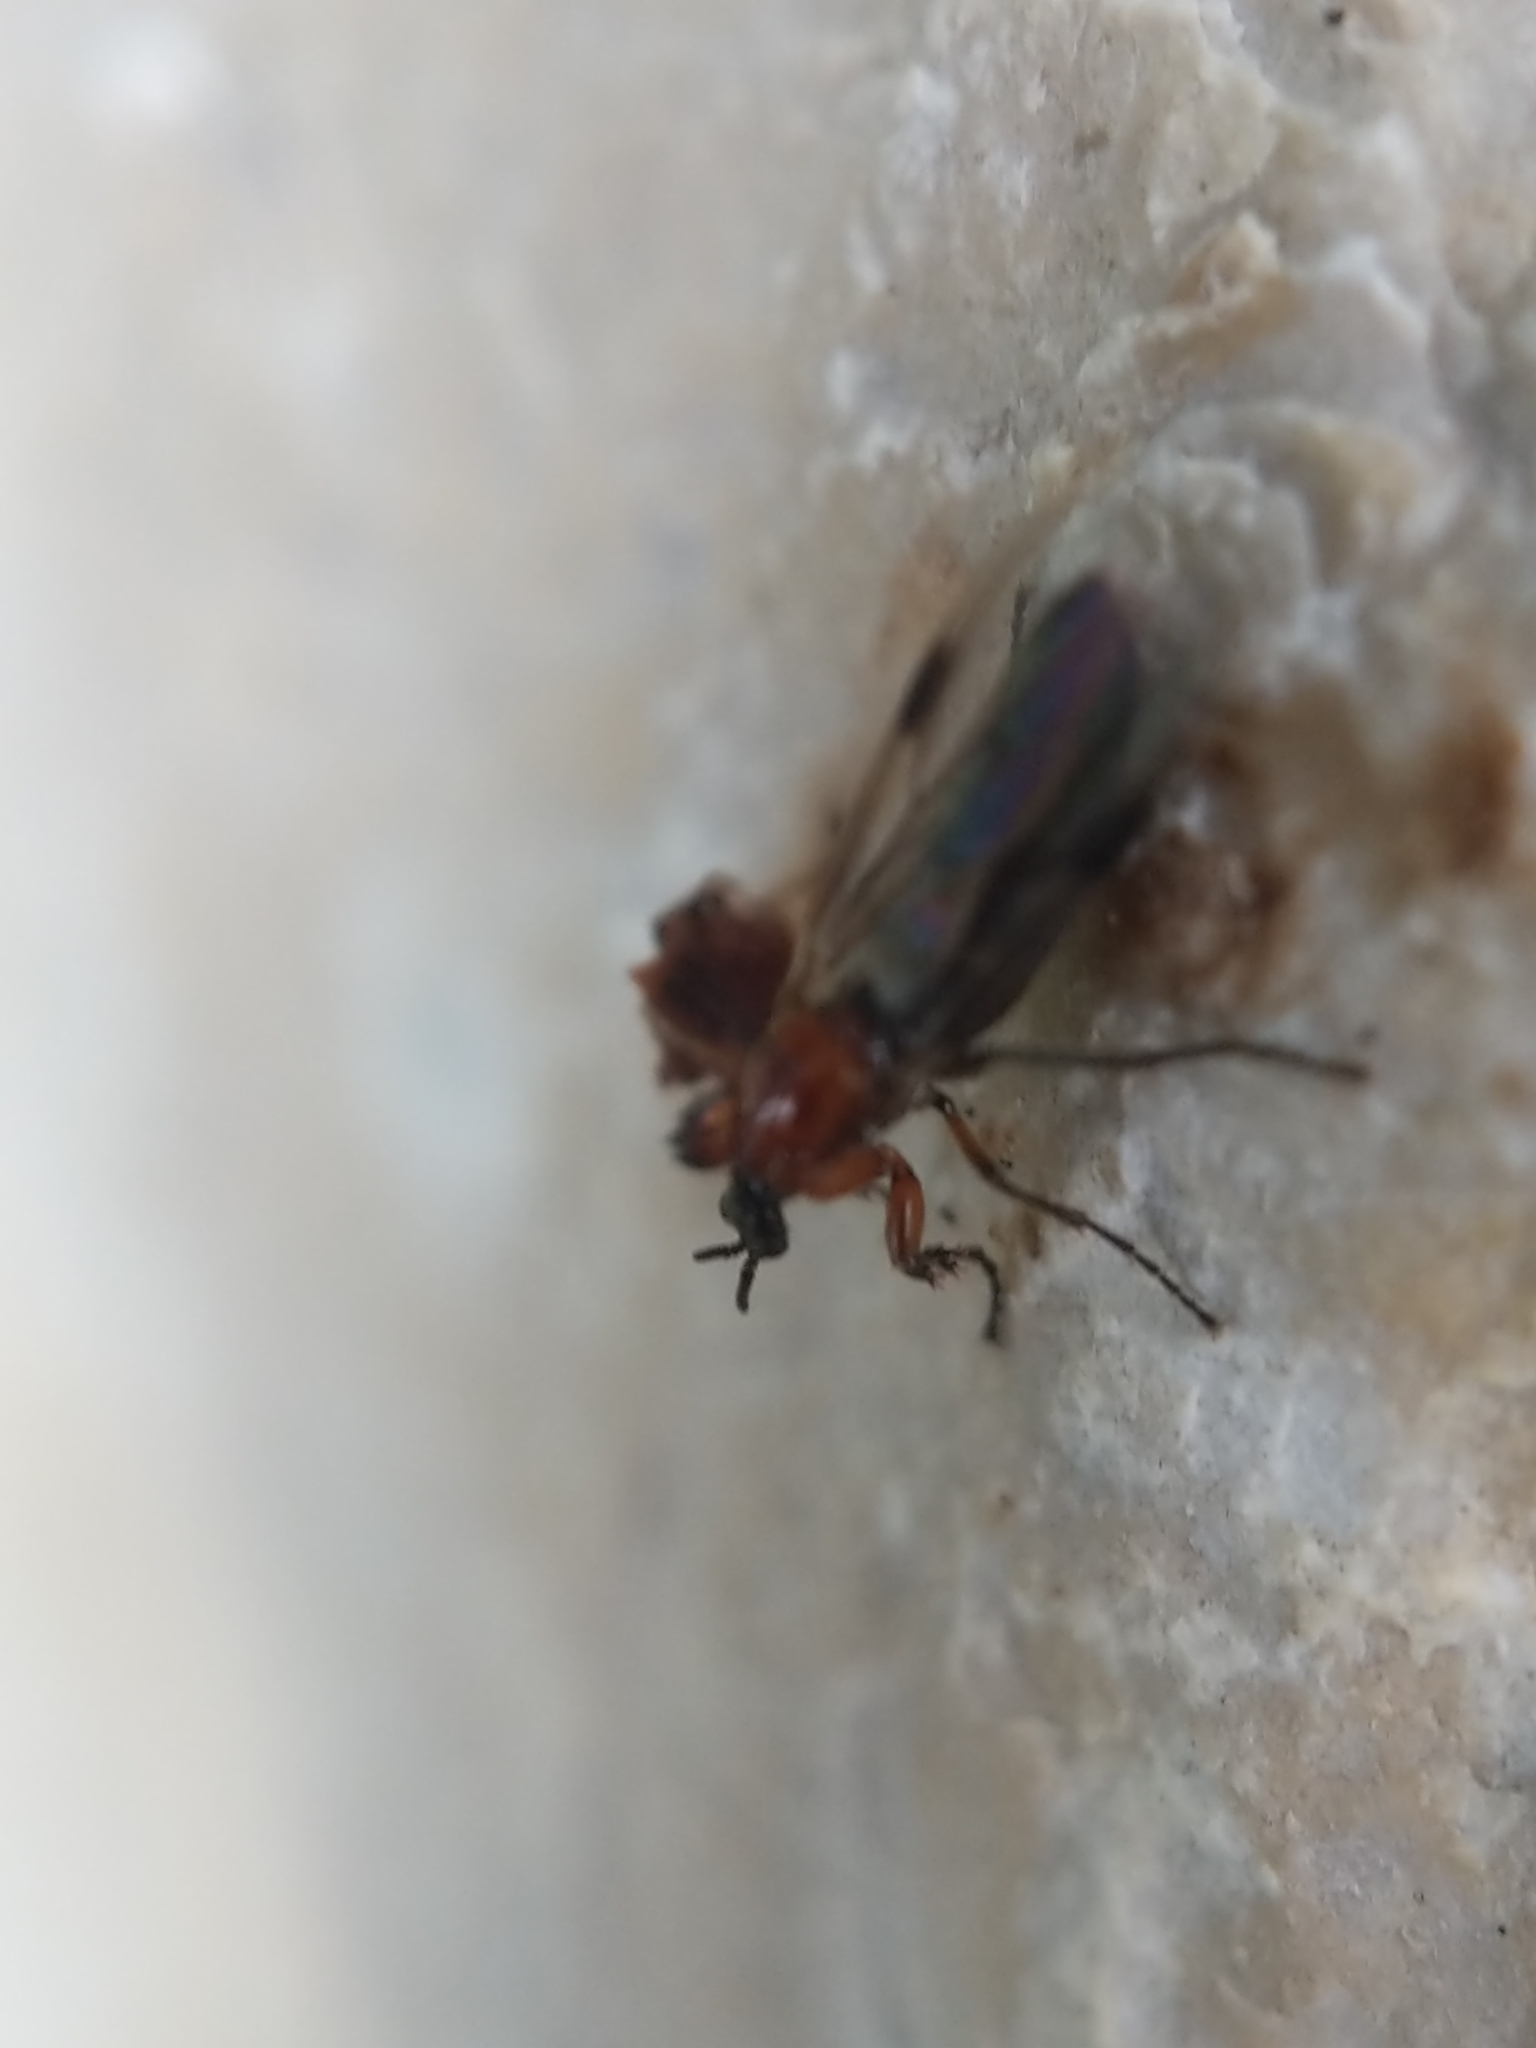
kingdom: Animalia
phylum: Arthropoda
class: Insecta
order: Diptera
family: Bibionidae
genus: Dilophus
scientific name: Dilophus tibialis
